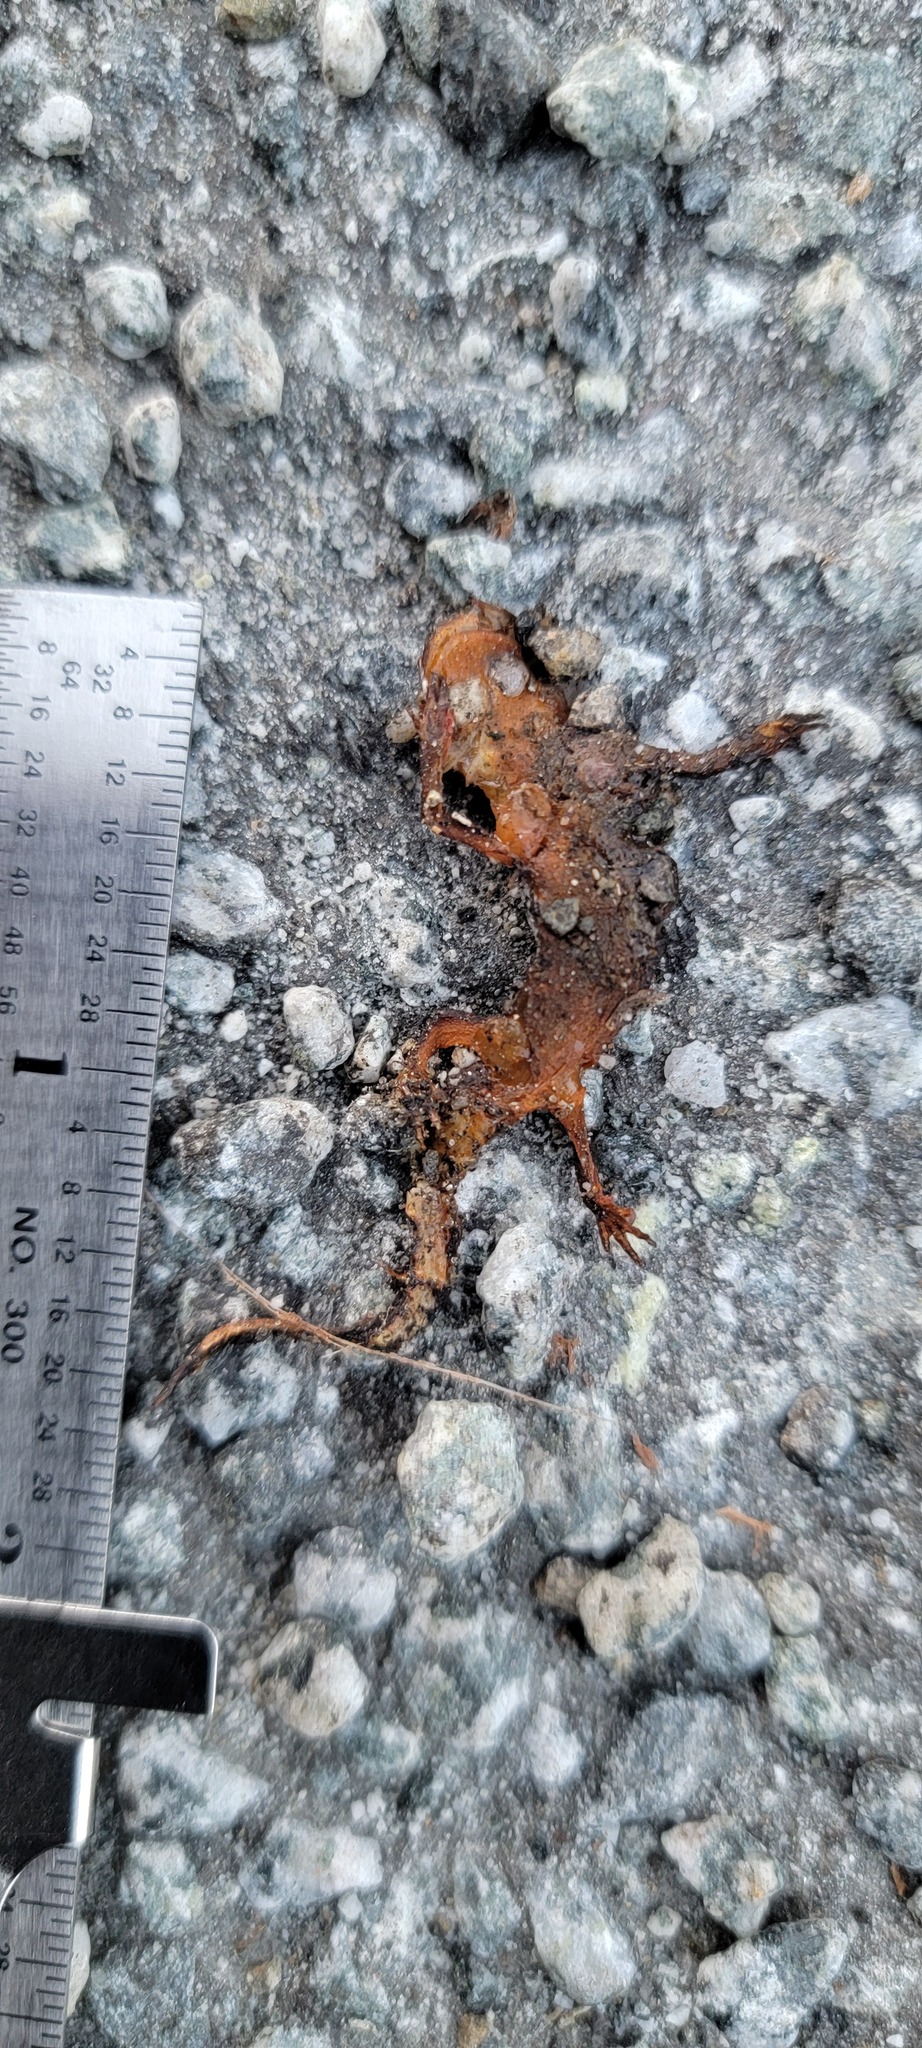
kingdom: Animalia
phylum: Chordata
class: Amphibia
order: Caudata
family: Salamandridae
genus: Taricha
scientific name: Taricha
